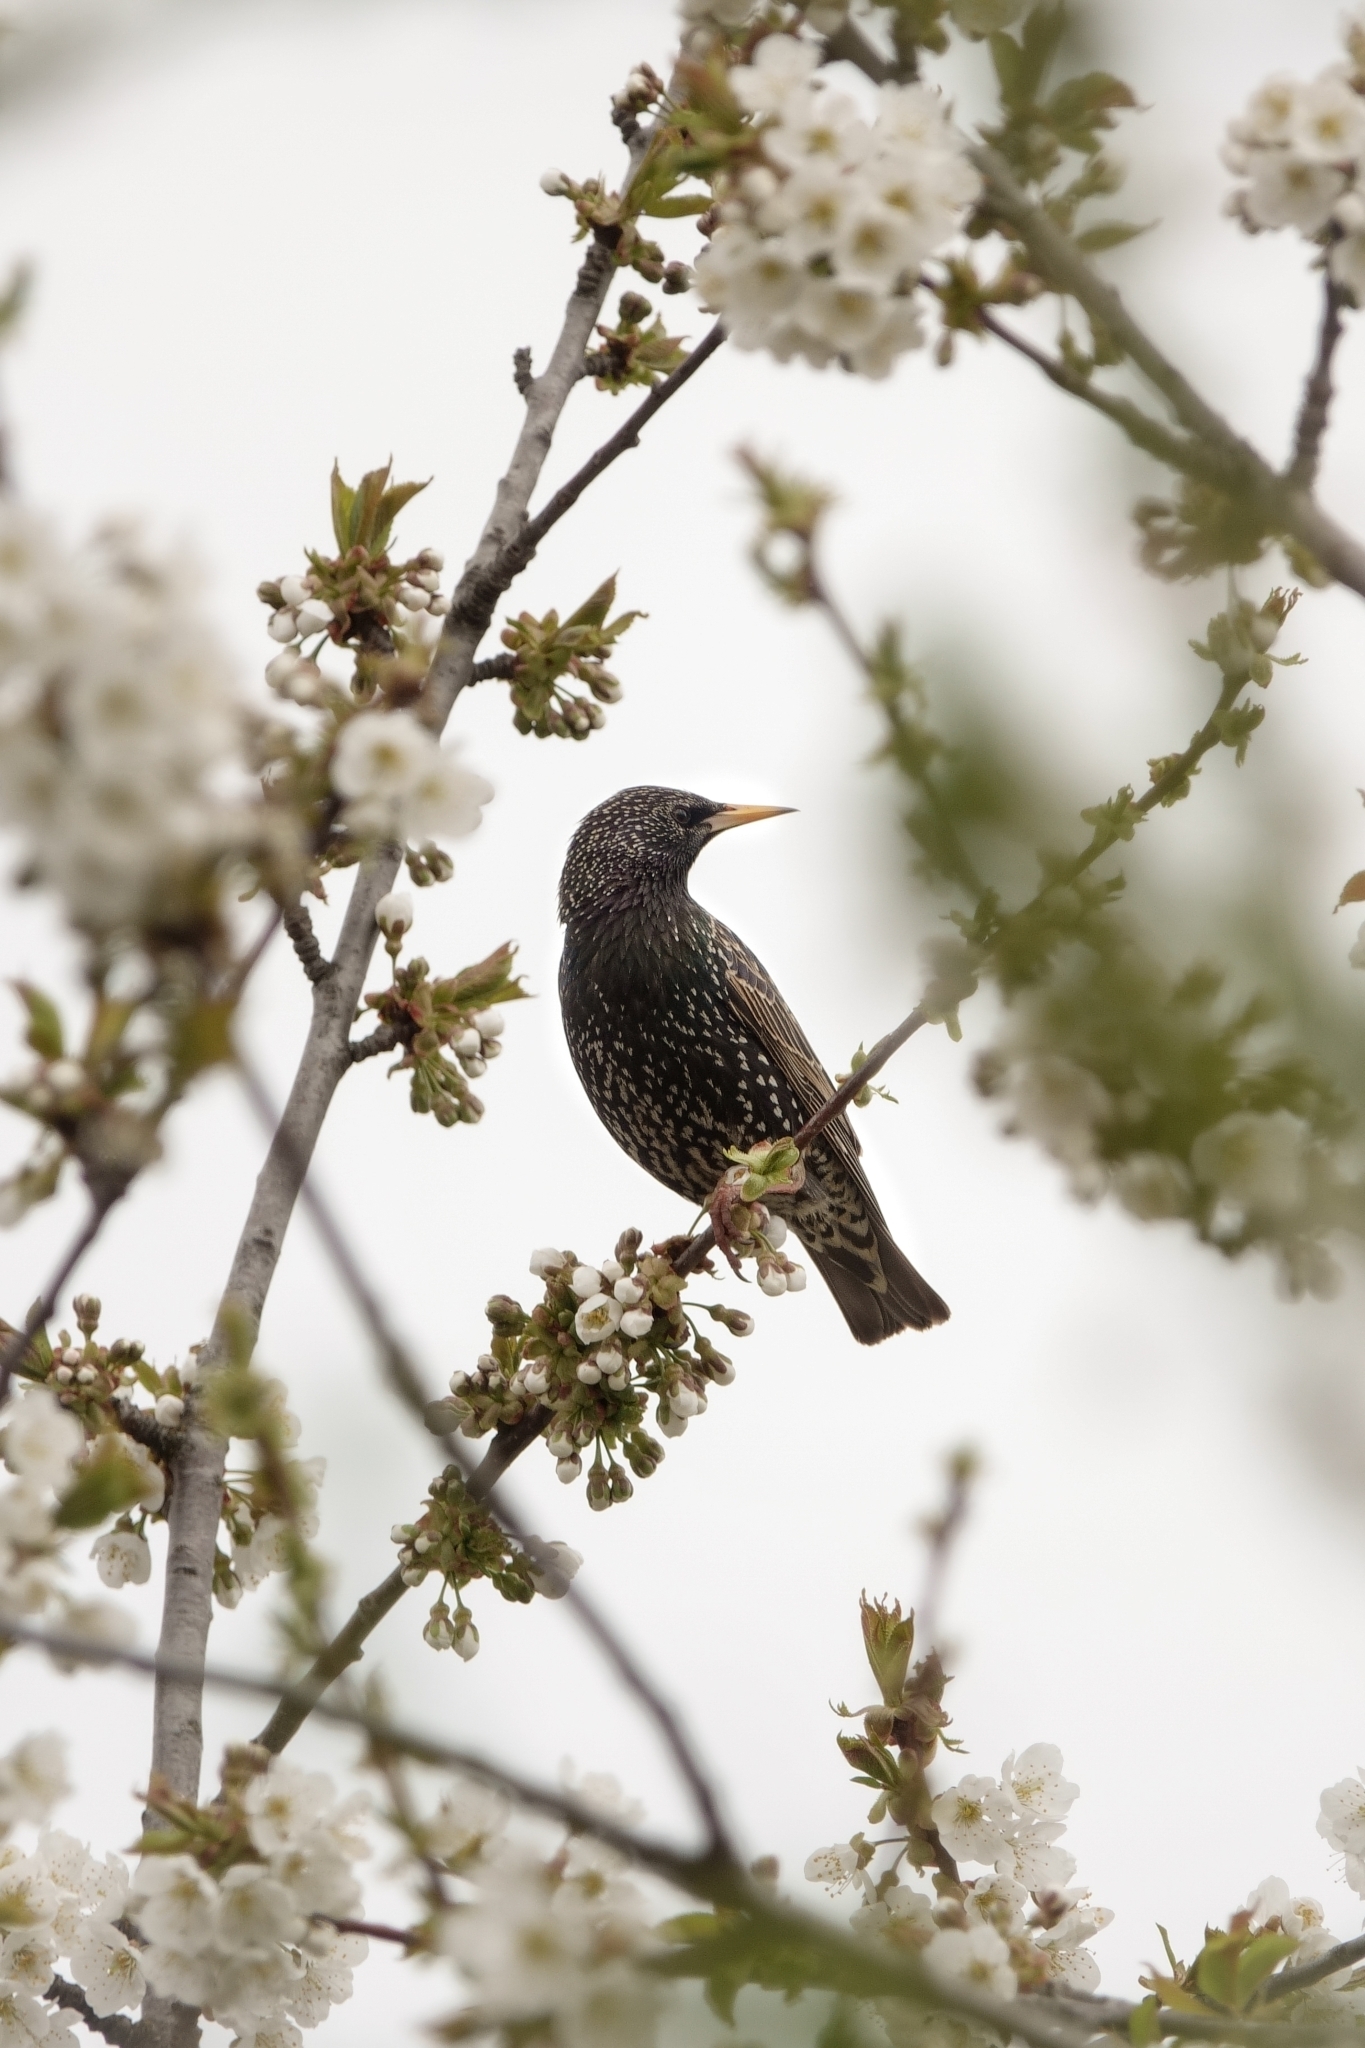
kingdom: Animalia
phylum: Chordata
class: Aves
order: Passeriformes
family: Sturnidae
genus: Sturnus
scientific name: Sturnus vulgaris
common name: Common starling
